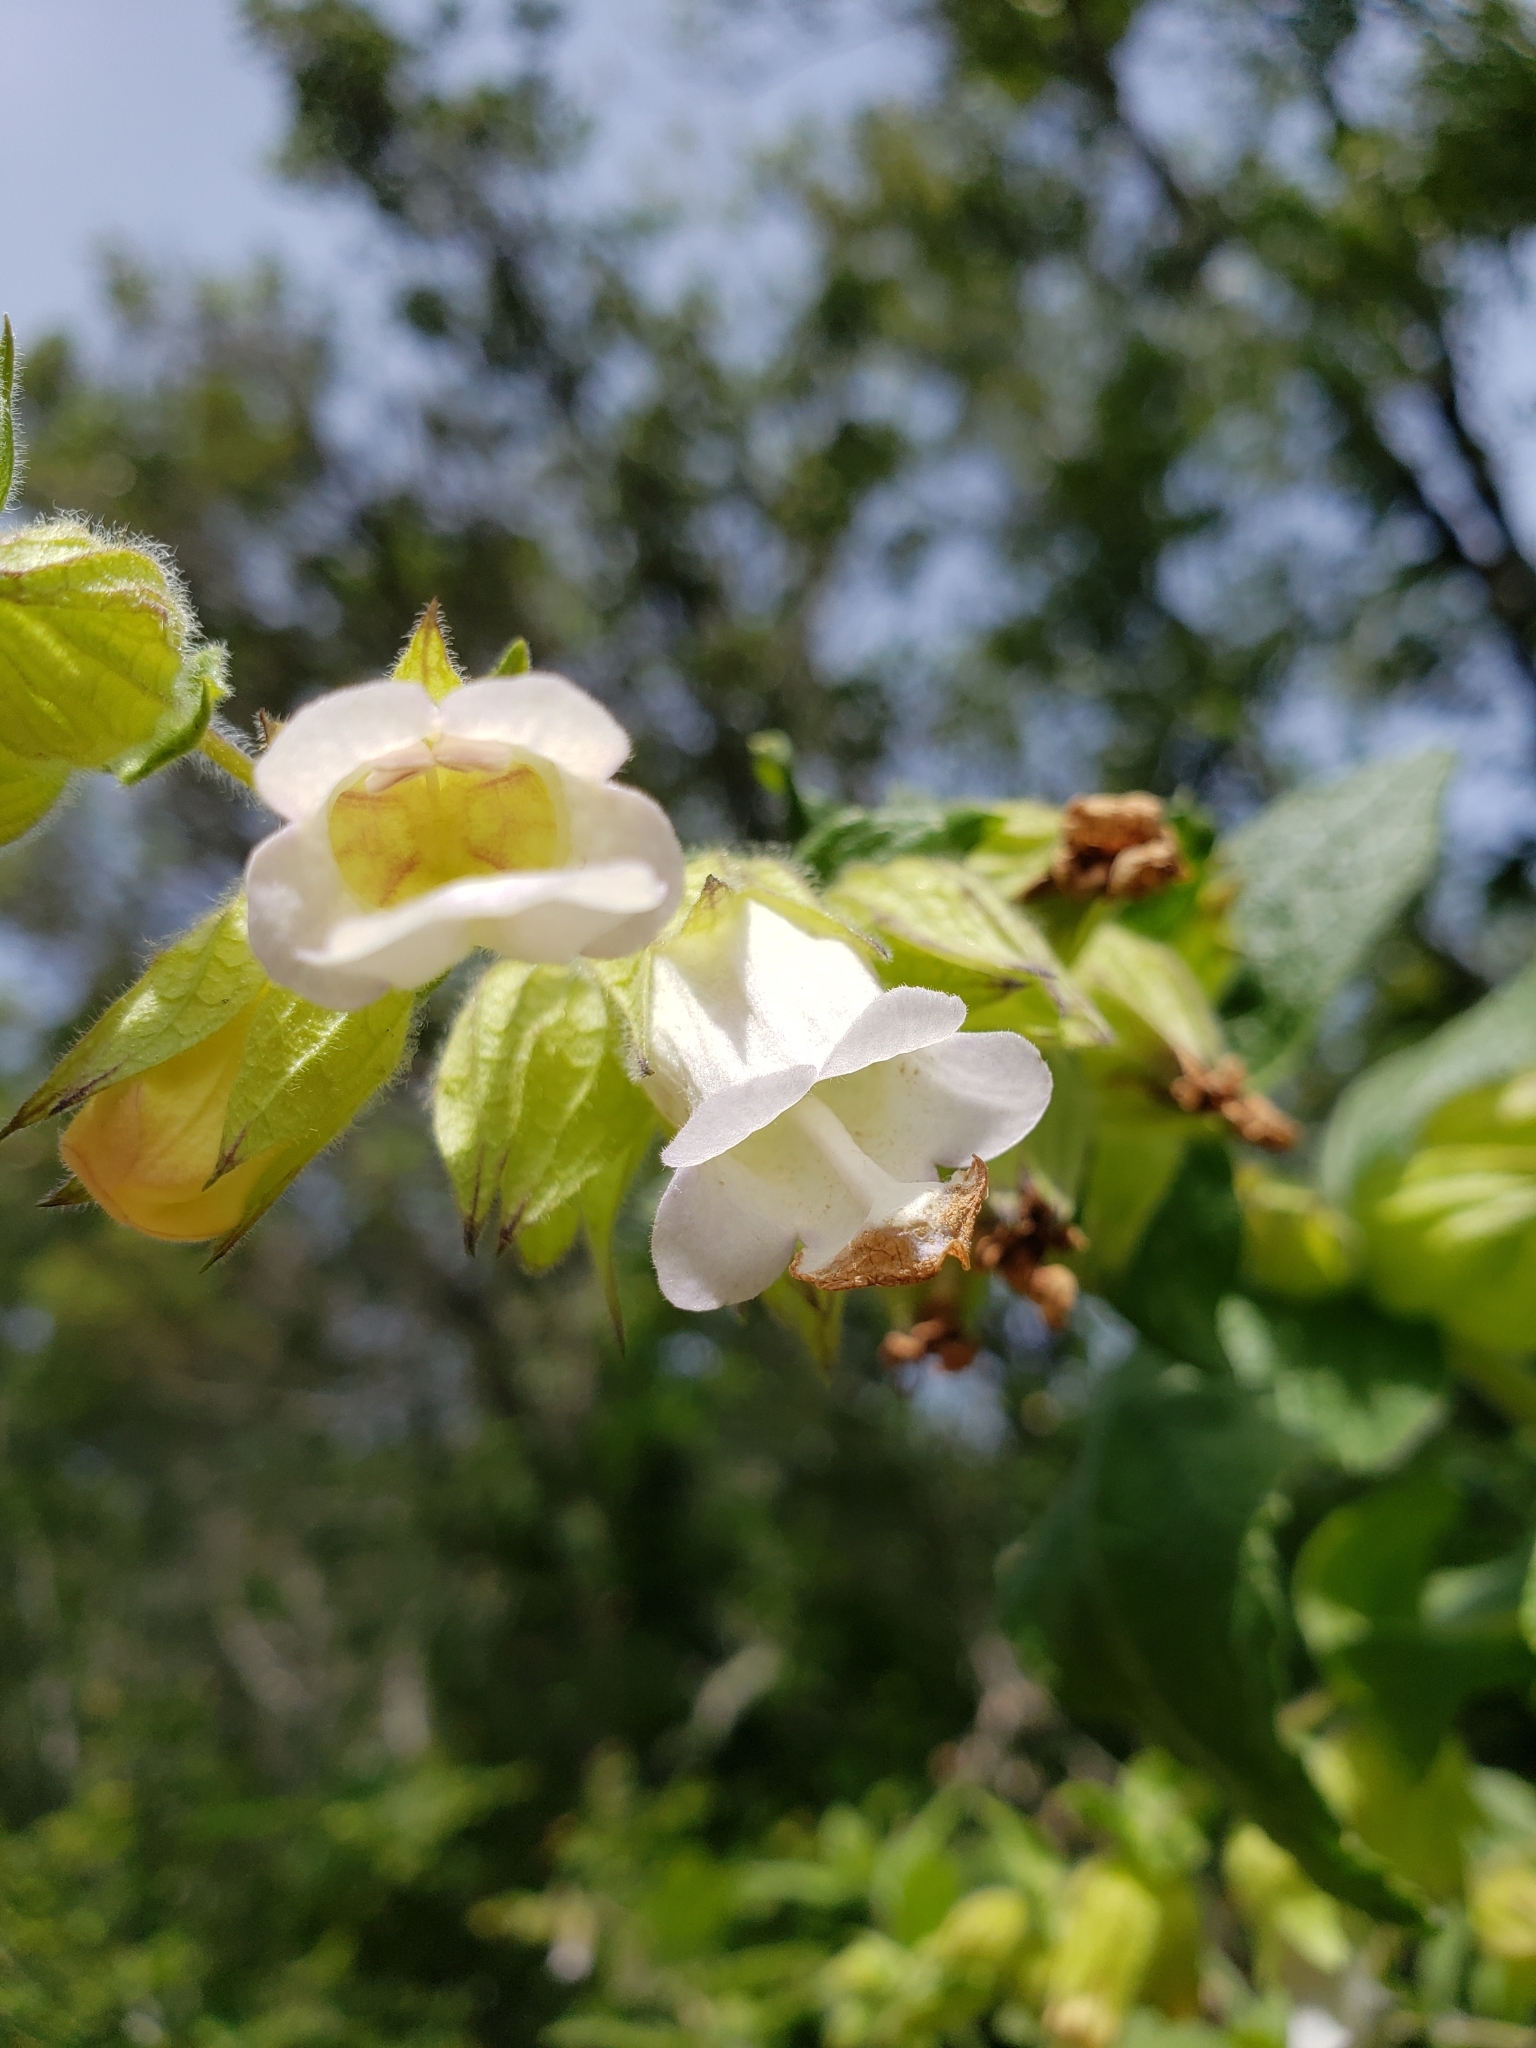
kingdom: Plantae
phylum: Tracheophyta
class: Magnoliopsida
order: Lamiales
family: Lamiaceae
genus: Lepechinia
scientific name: Lepechinia calycina
